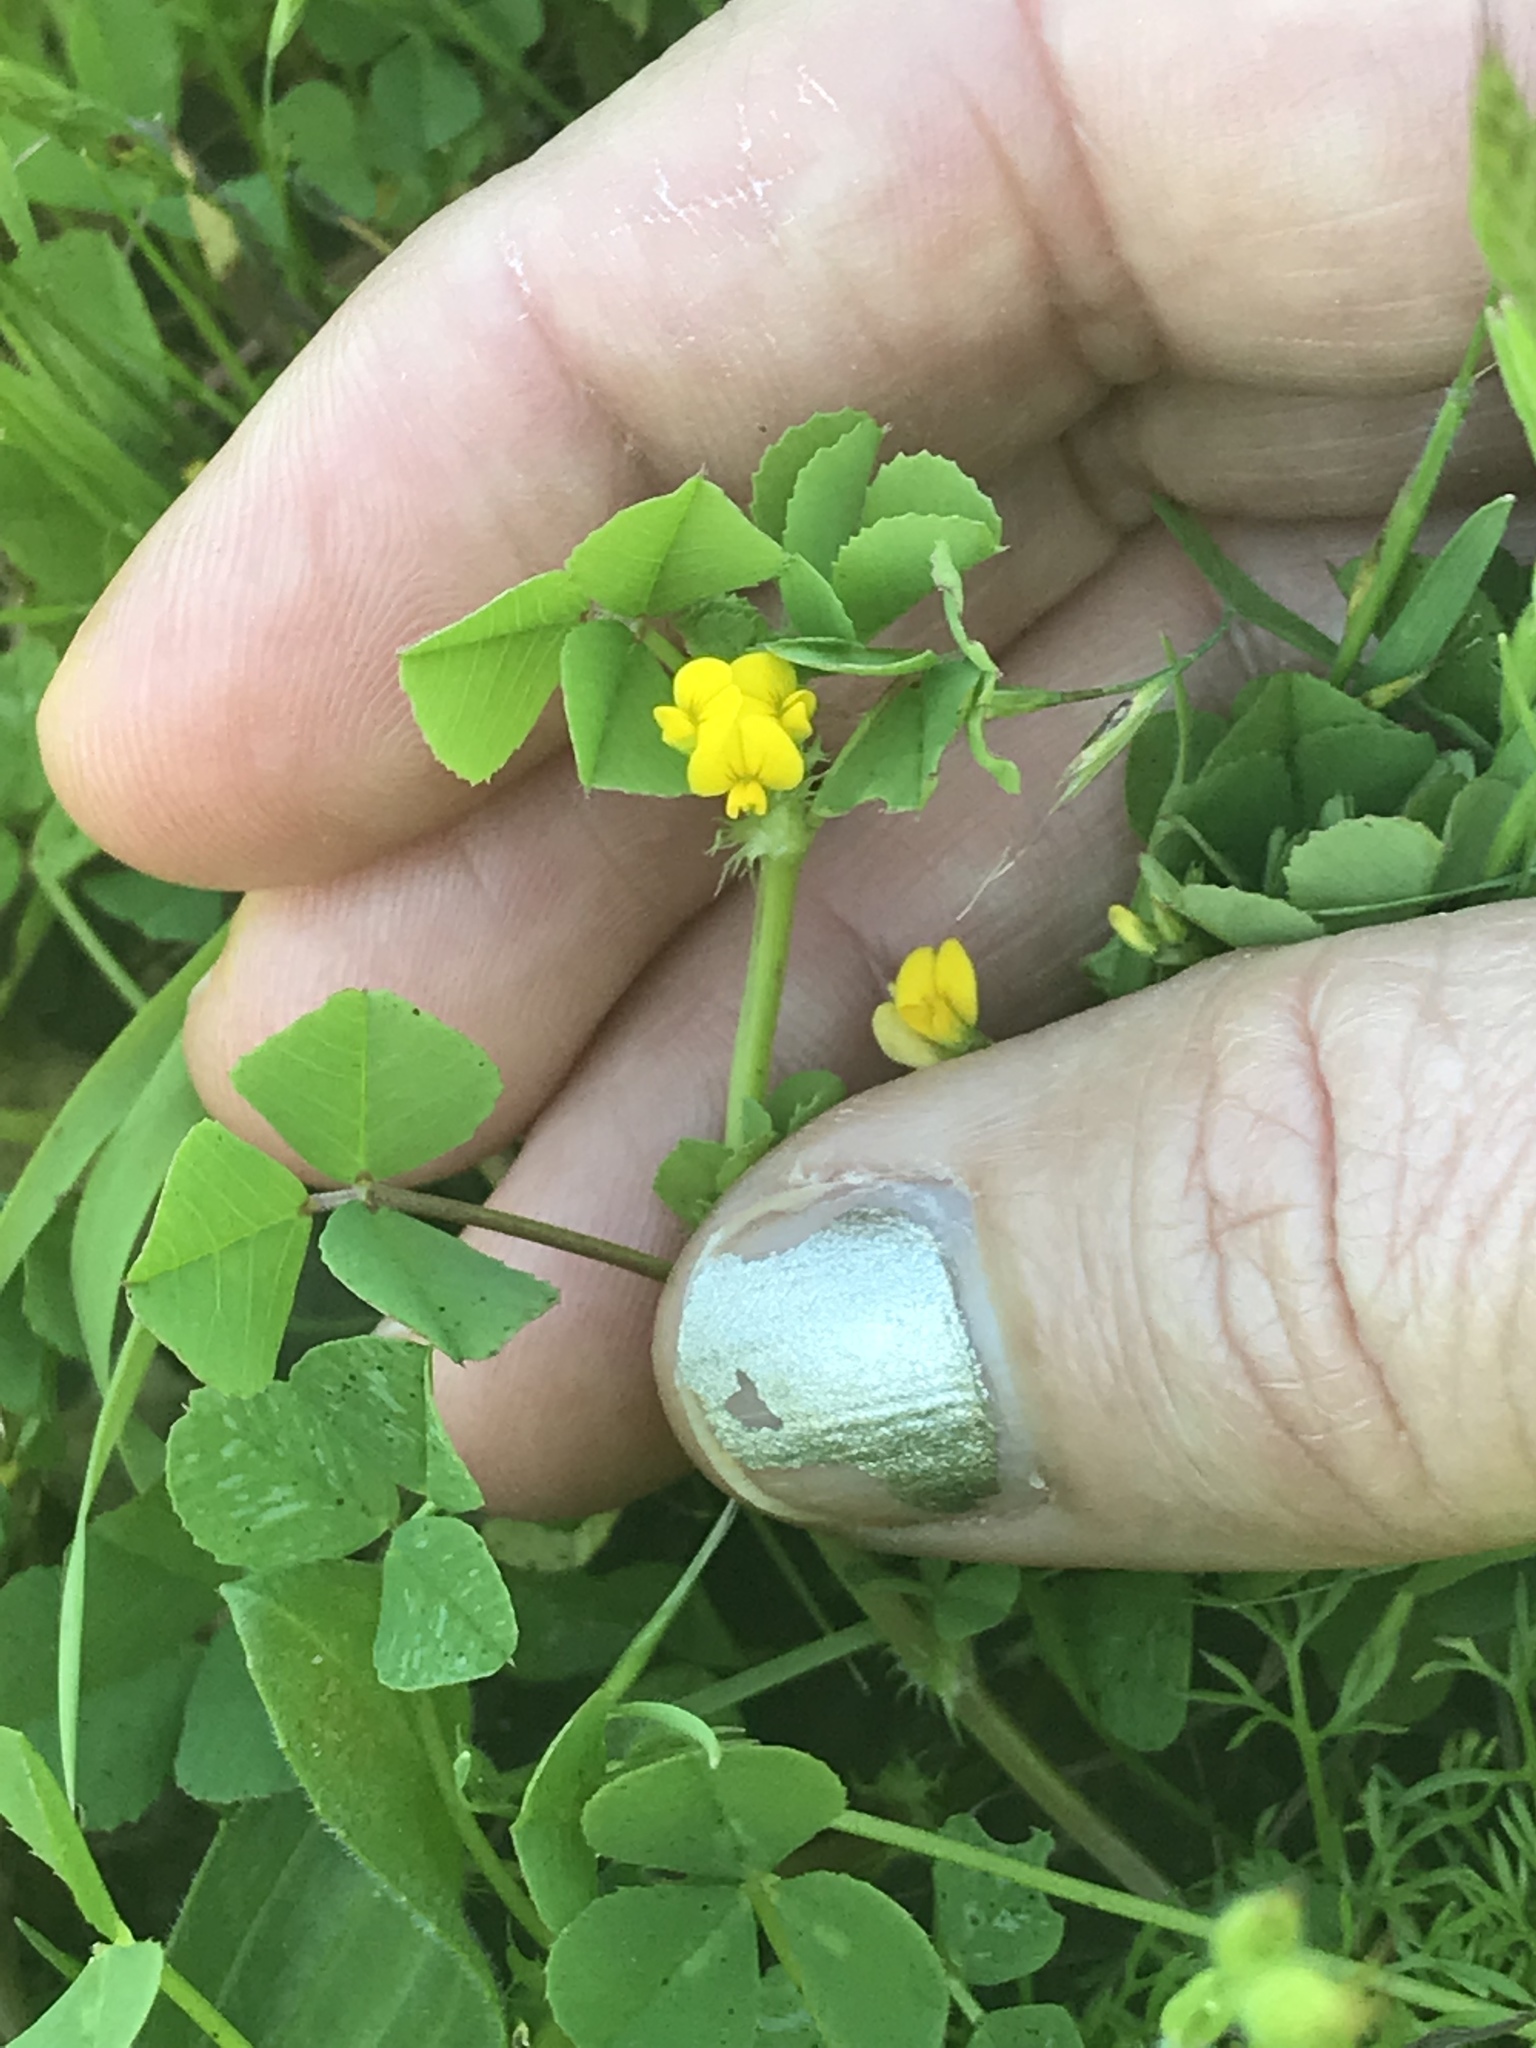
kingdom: Plantae
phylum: Tracheophyta
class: Magnoliopsida
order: Fabales
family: Fabaceae
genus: Medicago
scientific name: Medicago polymorpha
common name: Burclover
